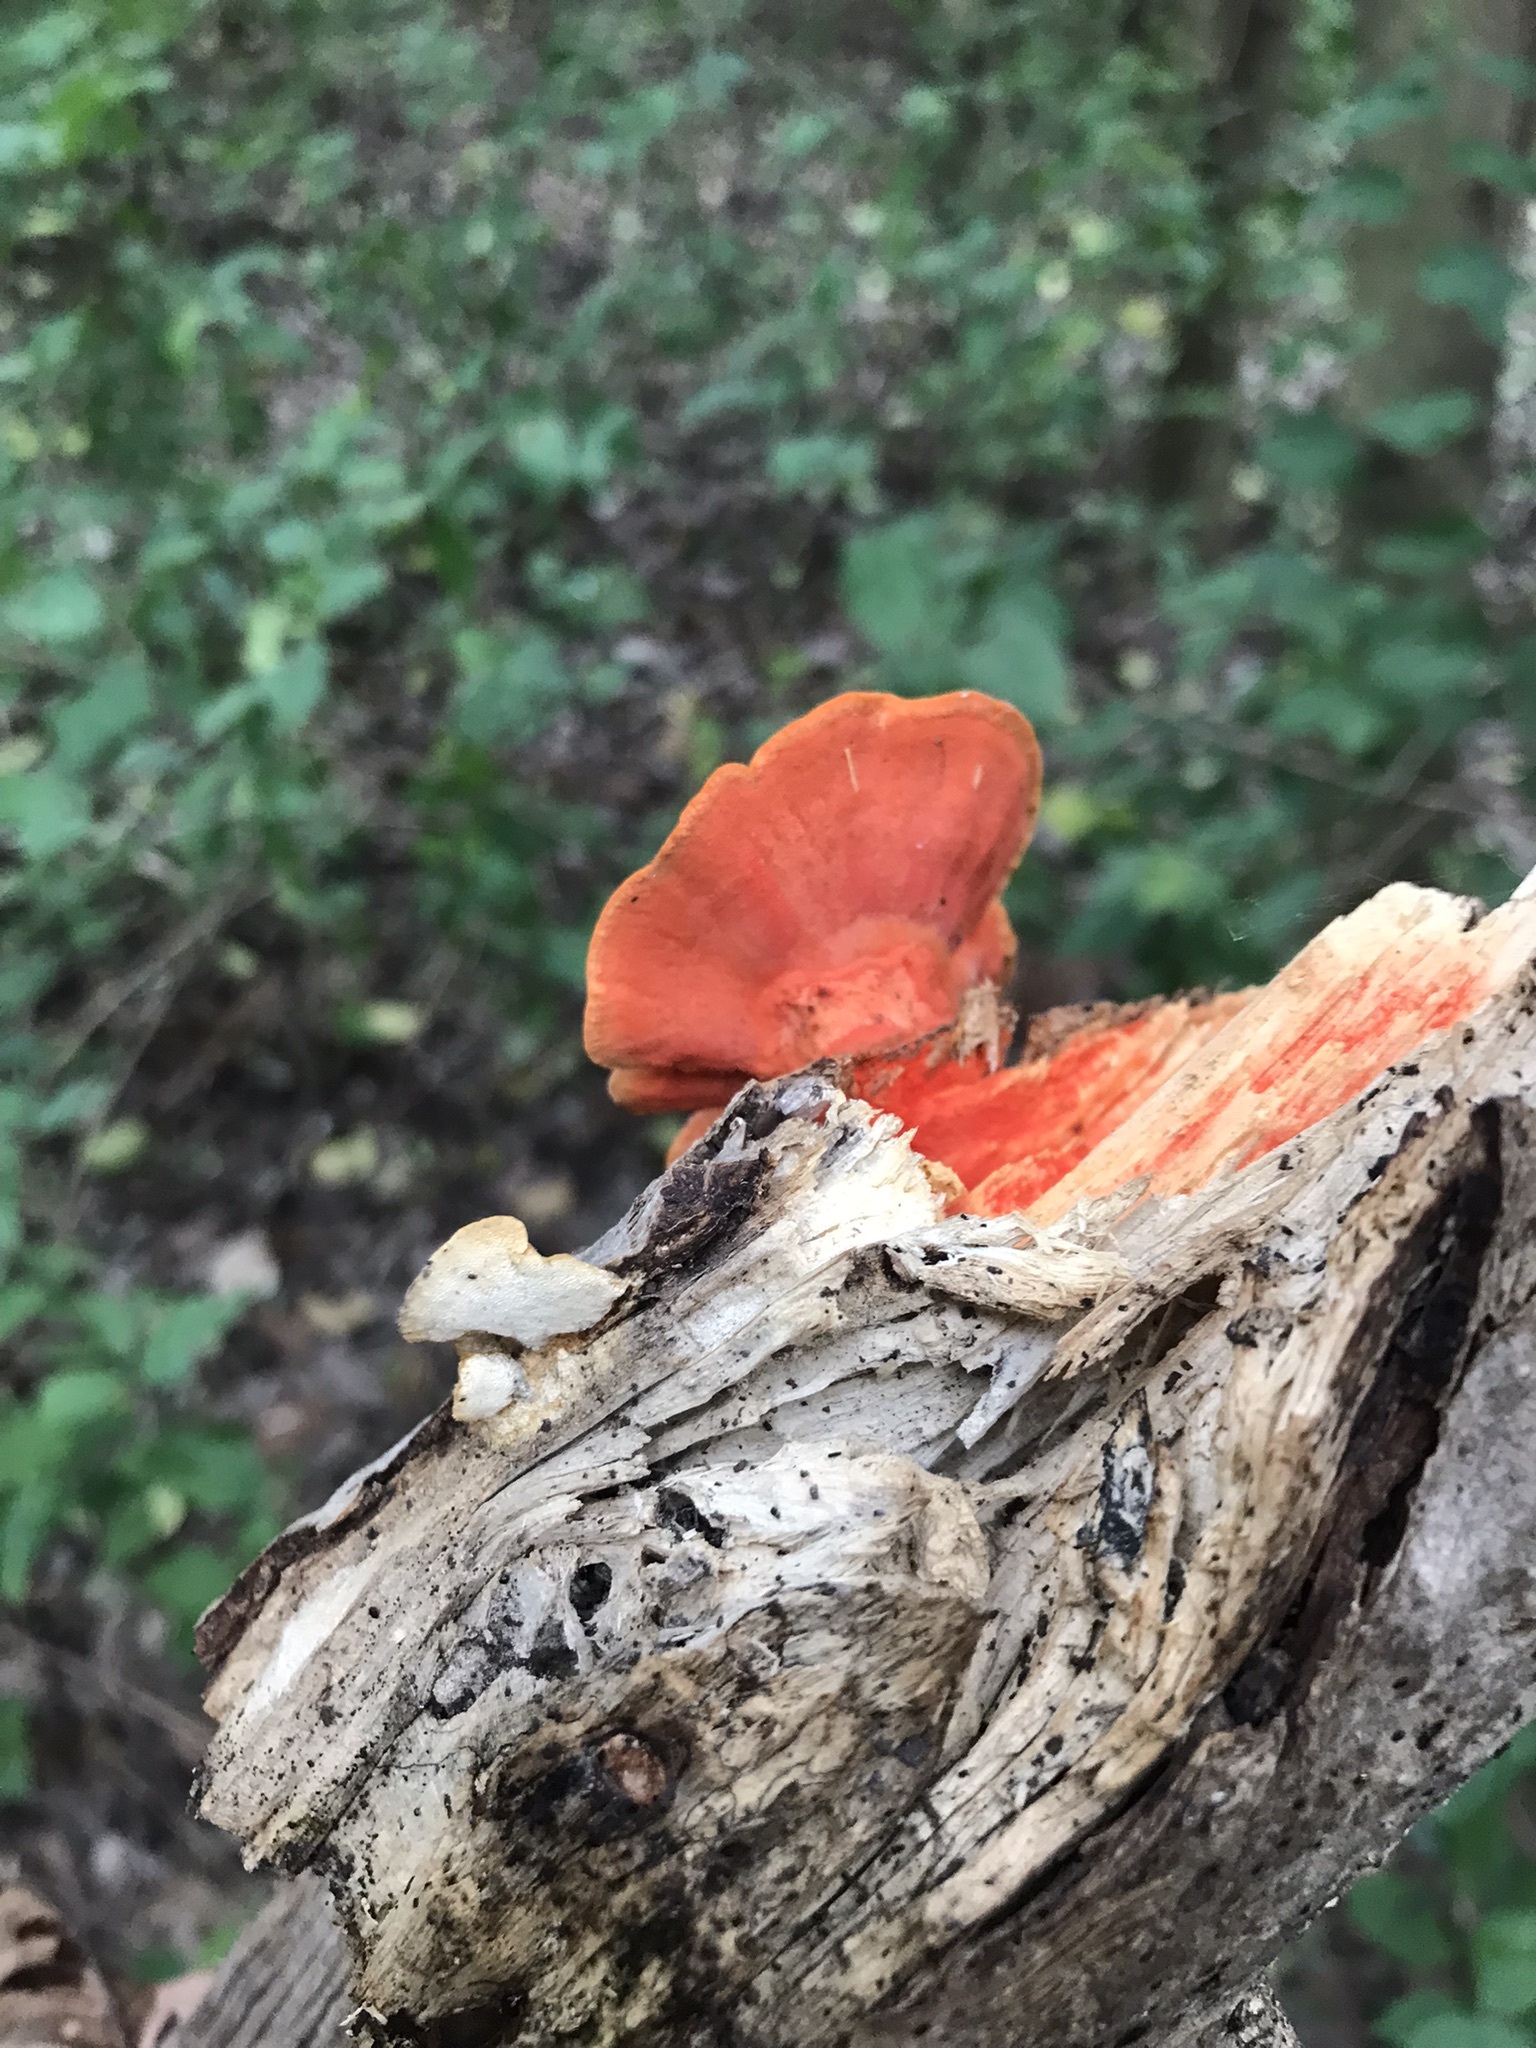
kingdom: Fungi
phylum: Basidiomycota
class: Agaricomycetes
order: Polyporales
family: Polyporaceae
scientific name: Polyporaceae
